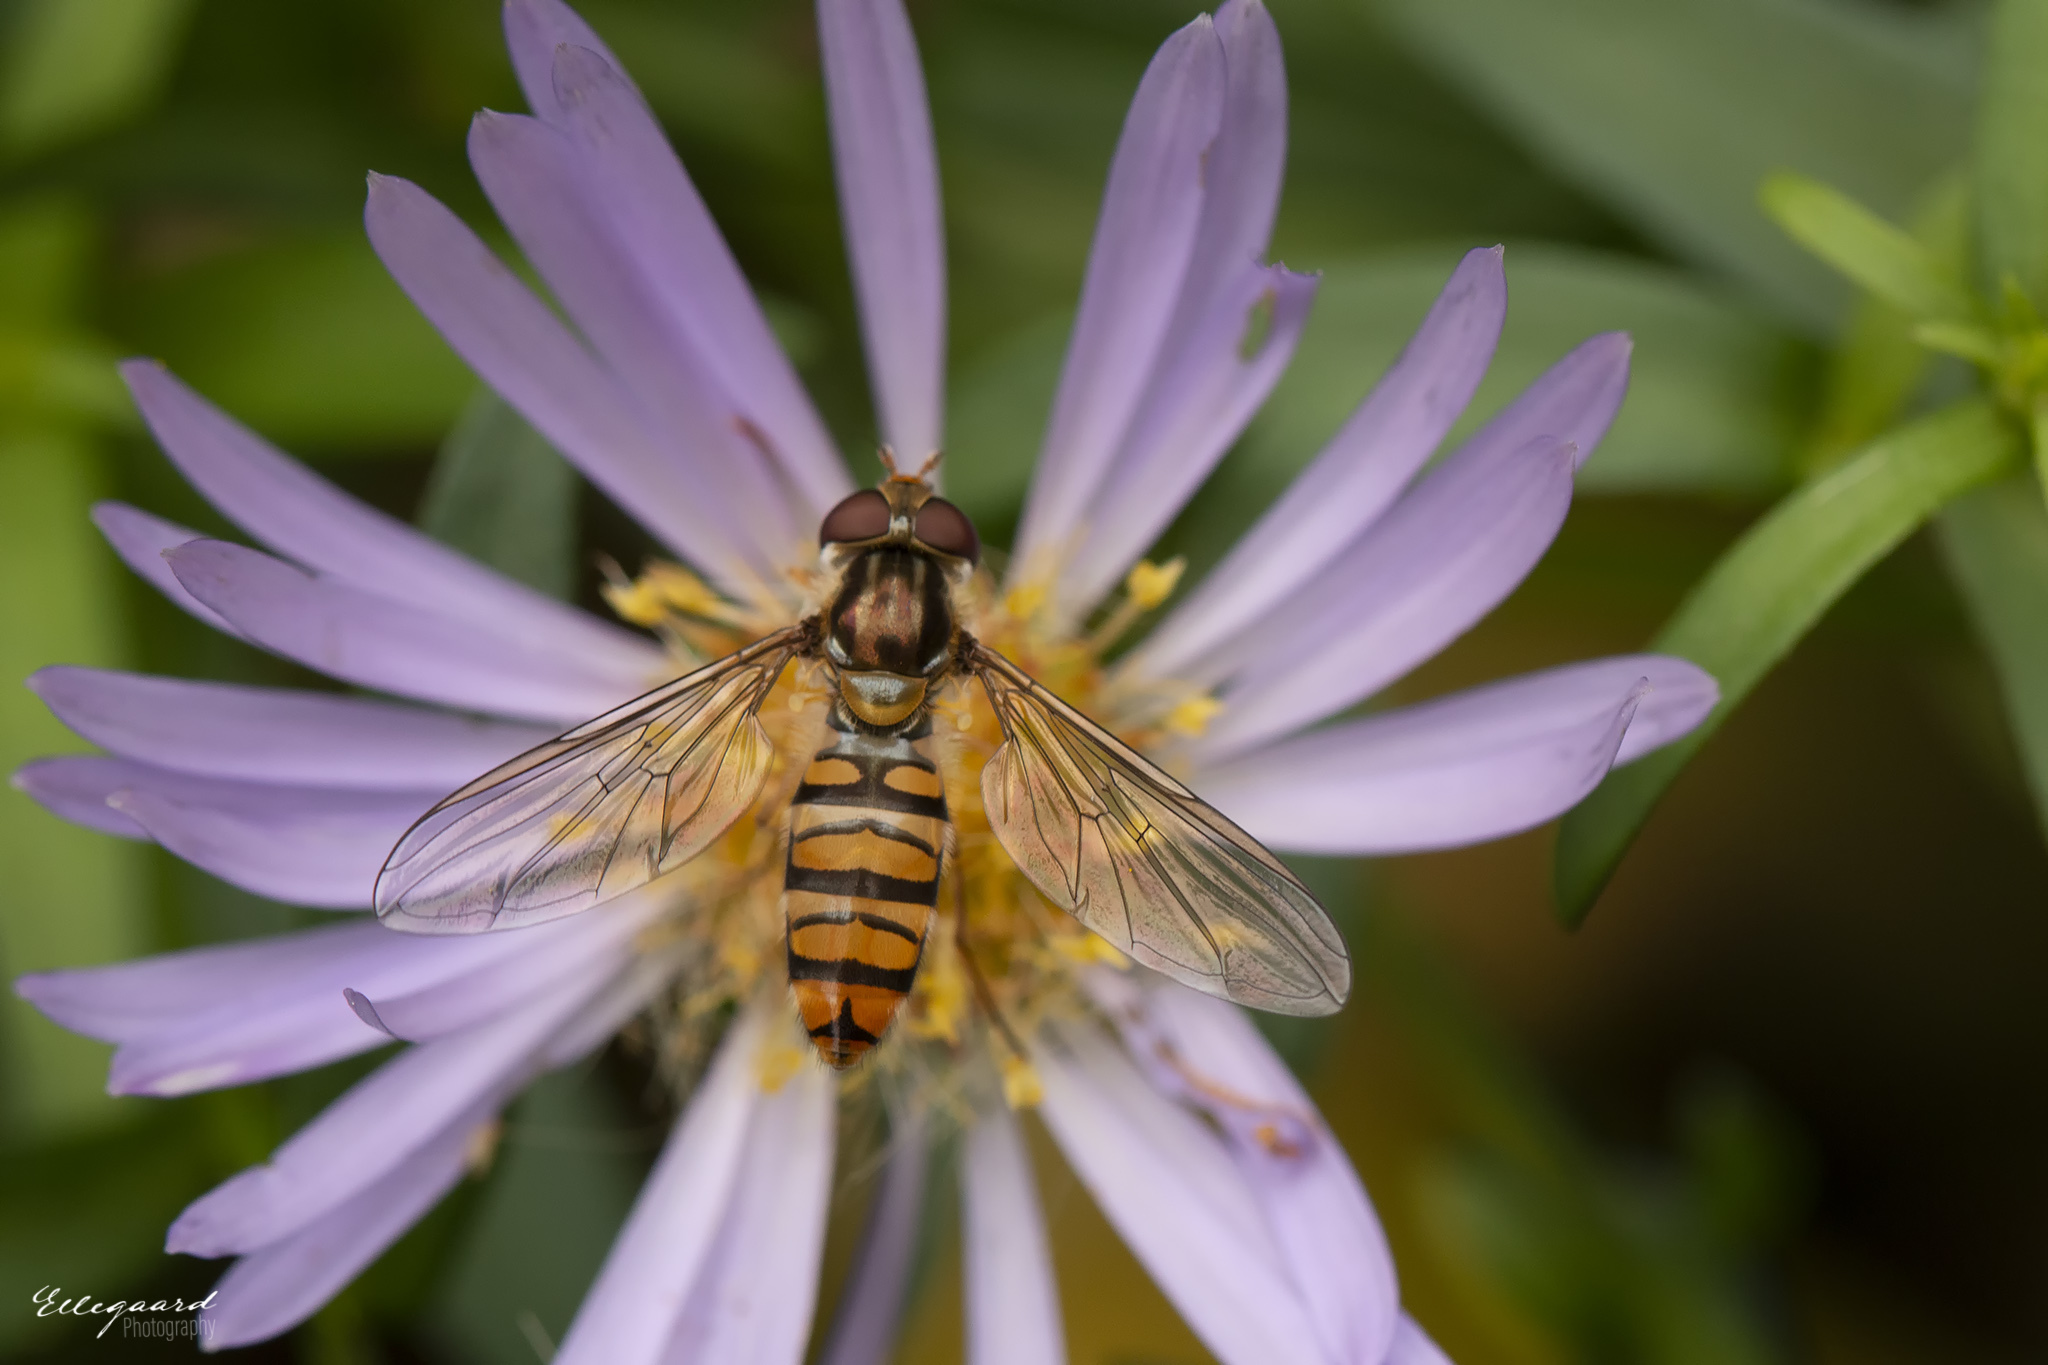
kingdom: Animalia
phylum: Arthropoda
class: Insecta
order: Diptera
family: Syrphidae
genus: Episyrphus
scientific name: Episyrphus balteatus
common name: Marmalade hoverfly
